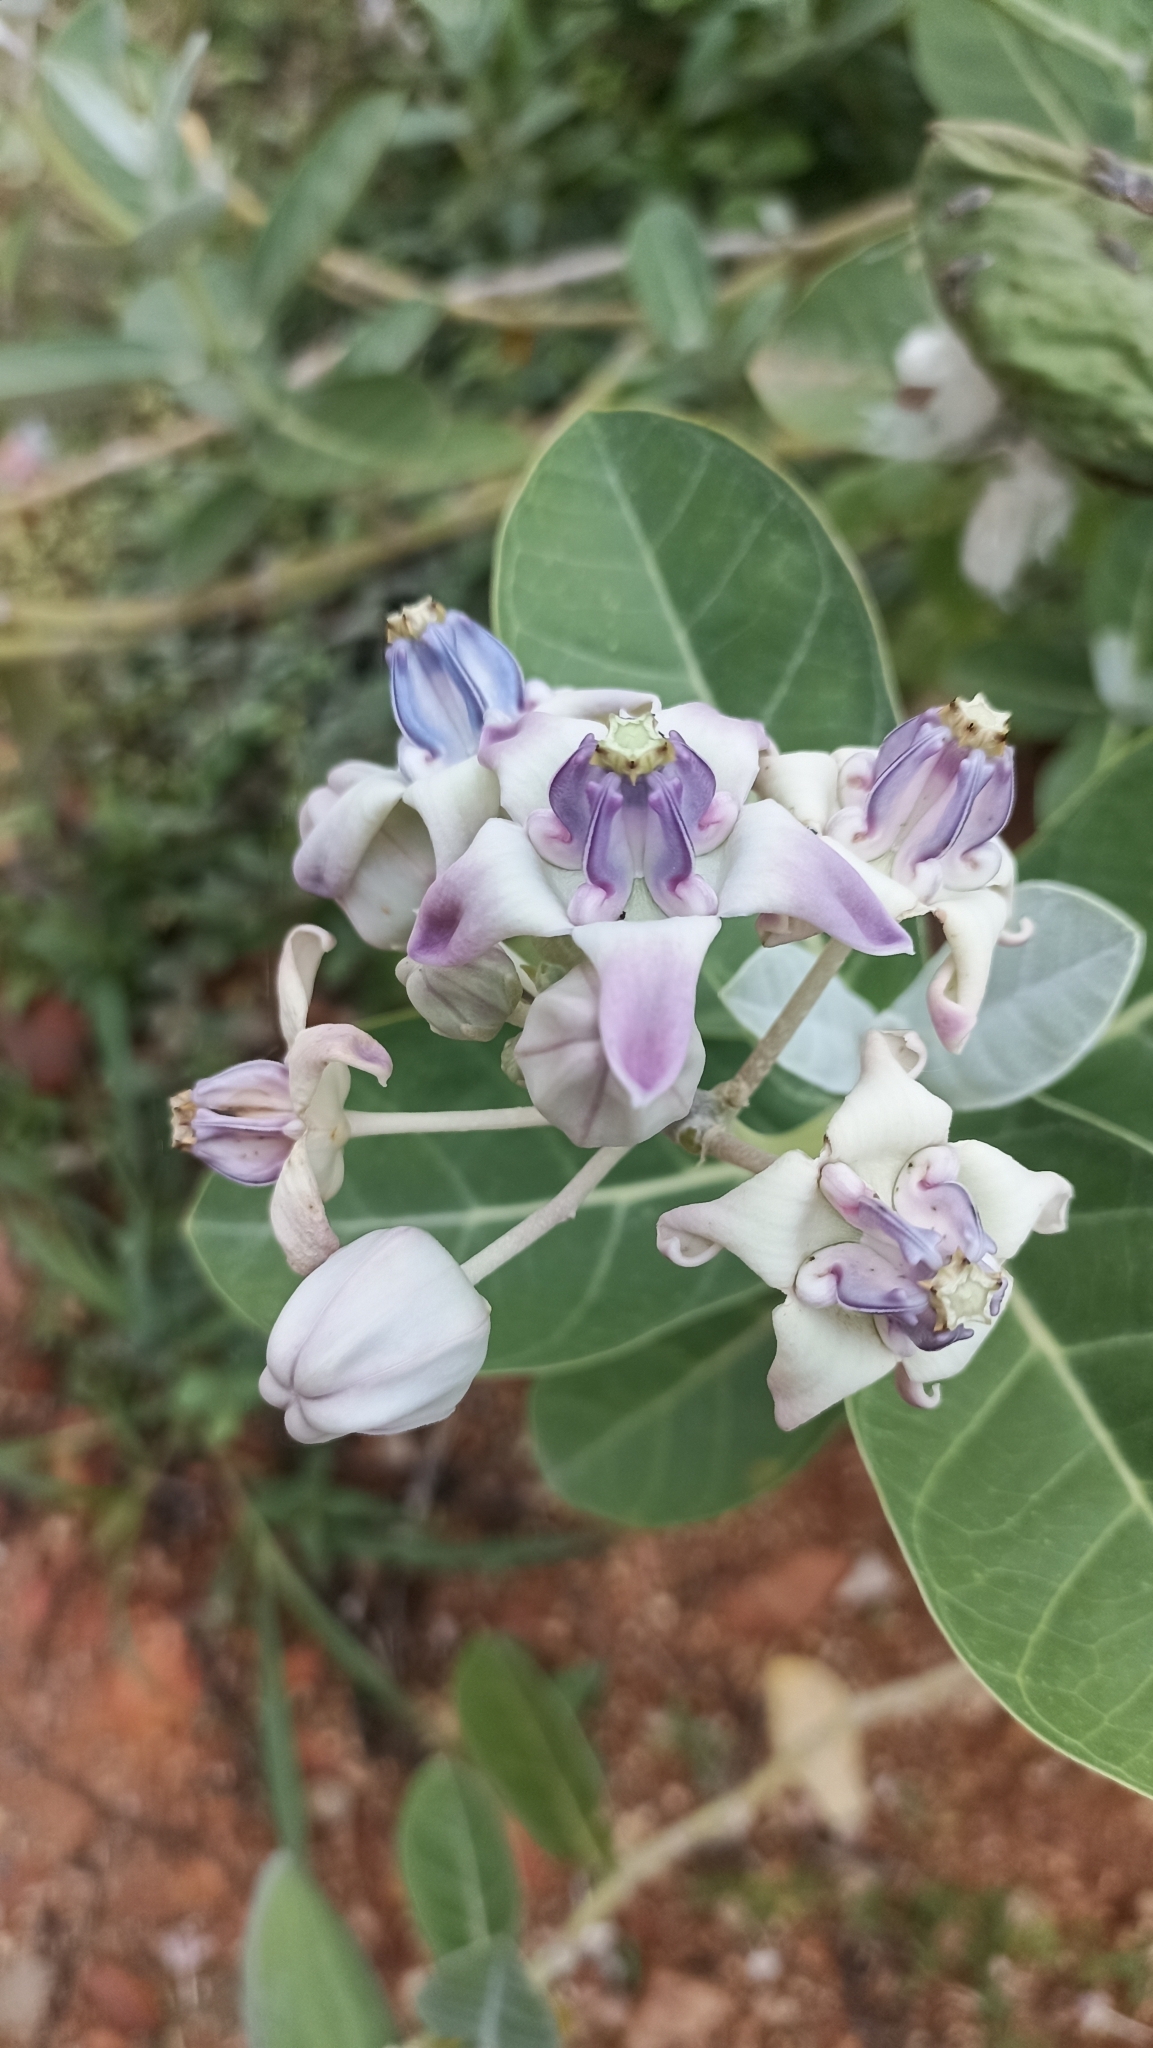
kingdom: Plantae
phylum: Tracheophyta
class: Magnoliopsida
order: Gentianales
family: Apocynaceae
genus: Calotropis
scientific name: Calotropis gigantea
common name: Crown flower
